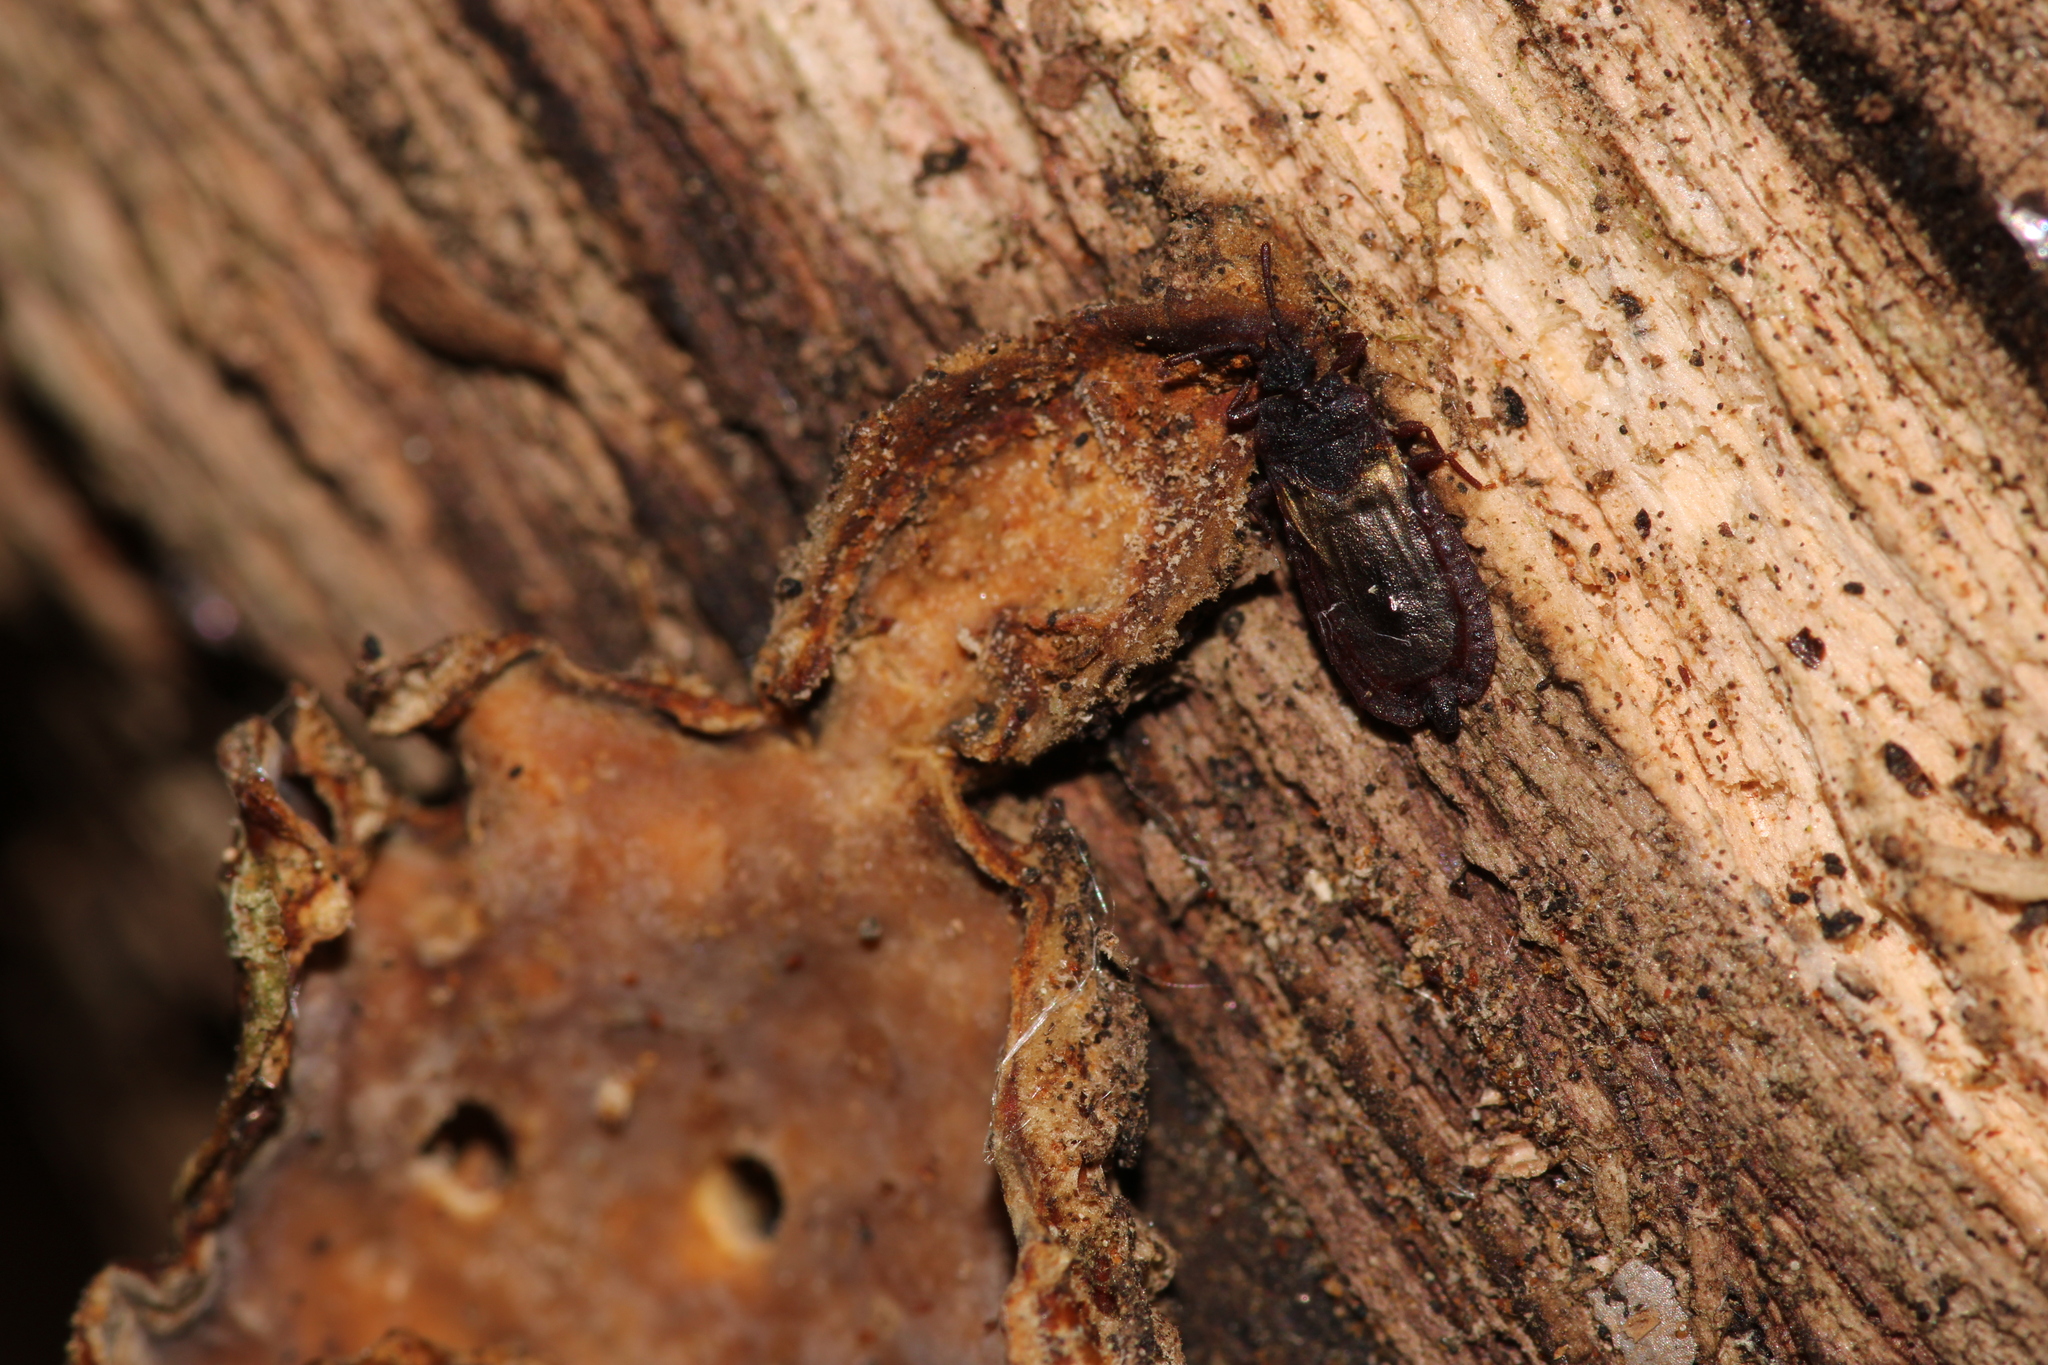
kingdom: Animalia
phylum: Arthropoda
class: Insecta
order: Hemiptera
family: Aradidae
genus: Aneurus
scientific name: Aneurus laevis
